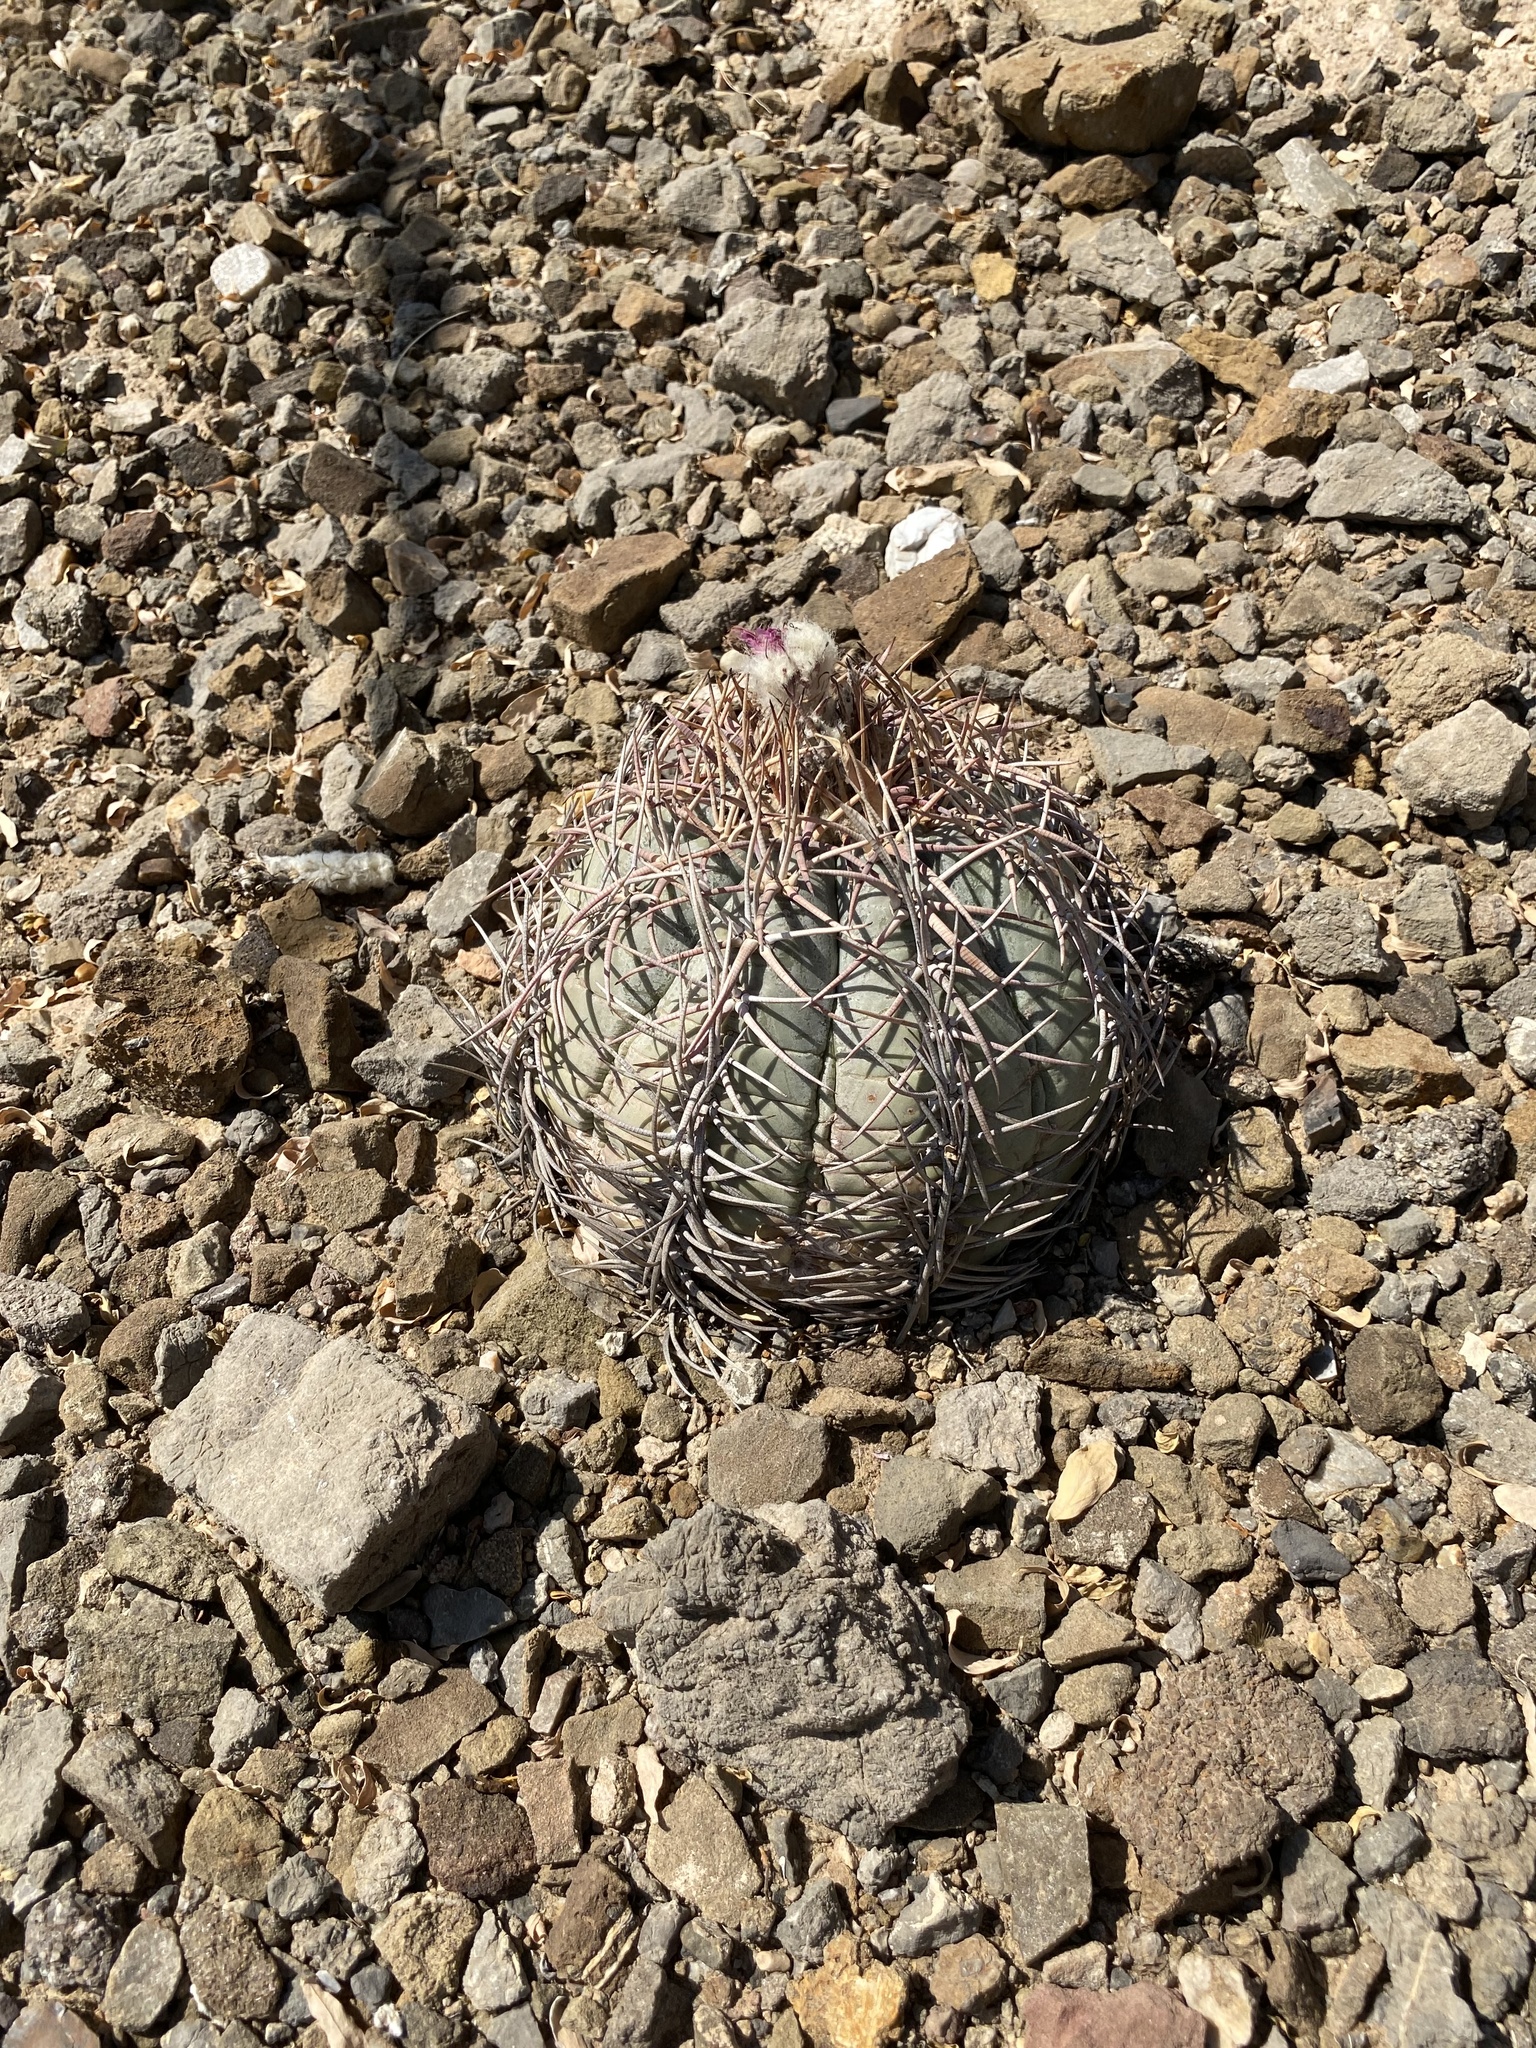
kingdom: Plantae
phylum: Tracheophyta
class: Magnoliopsida
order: Caryophyllales
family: Cactaceae
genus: Echinocactus
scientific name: Echinocactus horizonthalonius
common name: Devilshead
